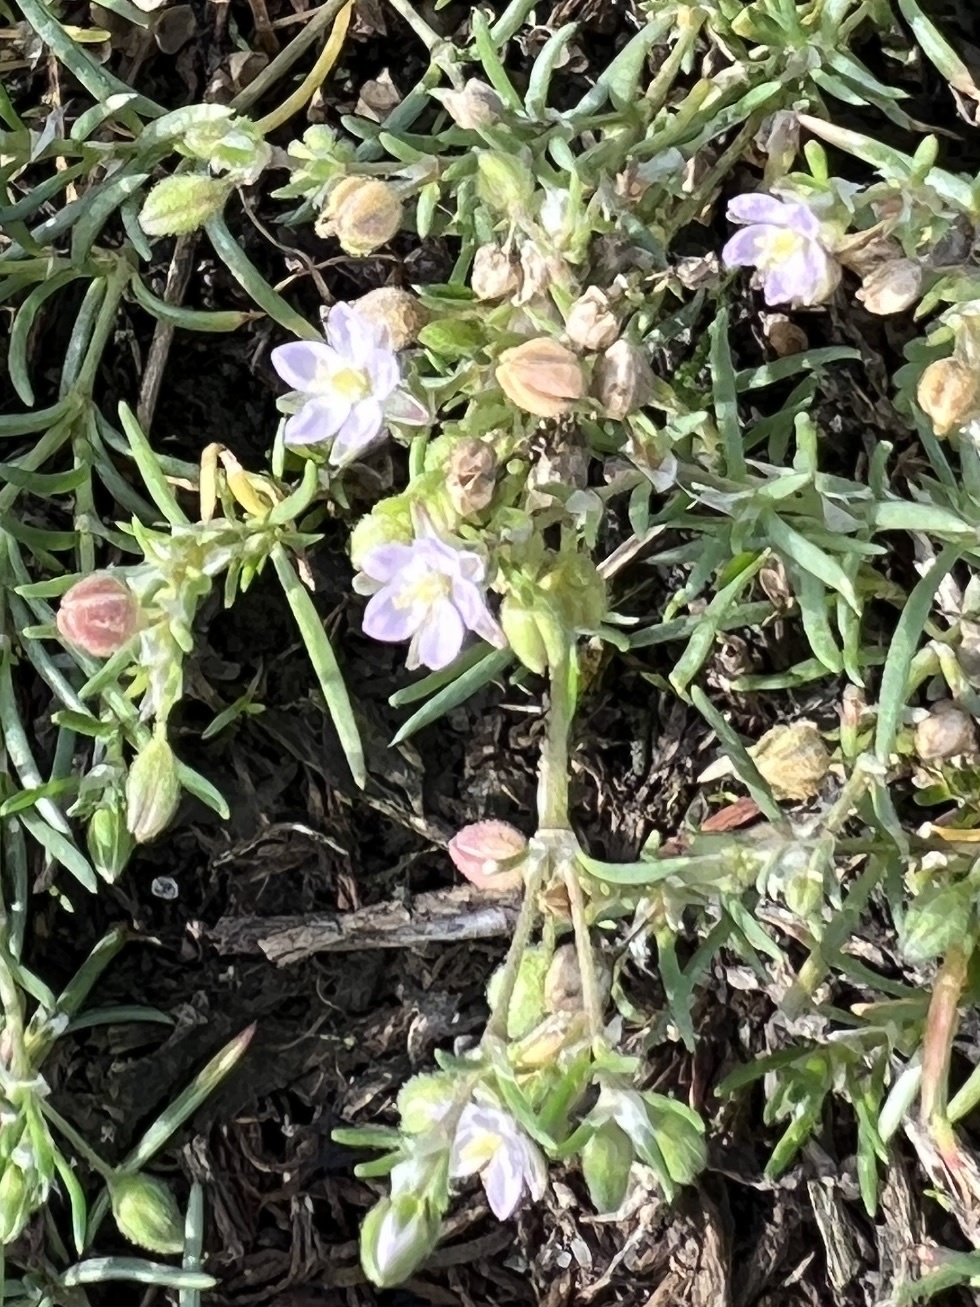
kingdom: Plantae
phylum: Tracheophyta
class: Magnoliopsida
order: Caryophyllales
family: Caryophyllaceae
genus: Spergularia
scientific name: Spergularia marina
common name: Lesser sea-spurrey
